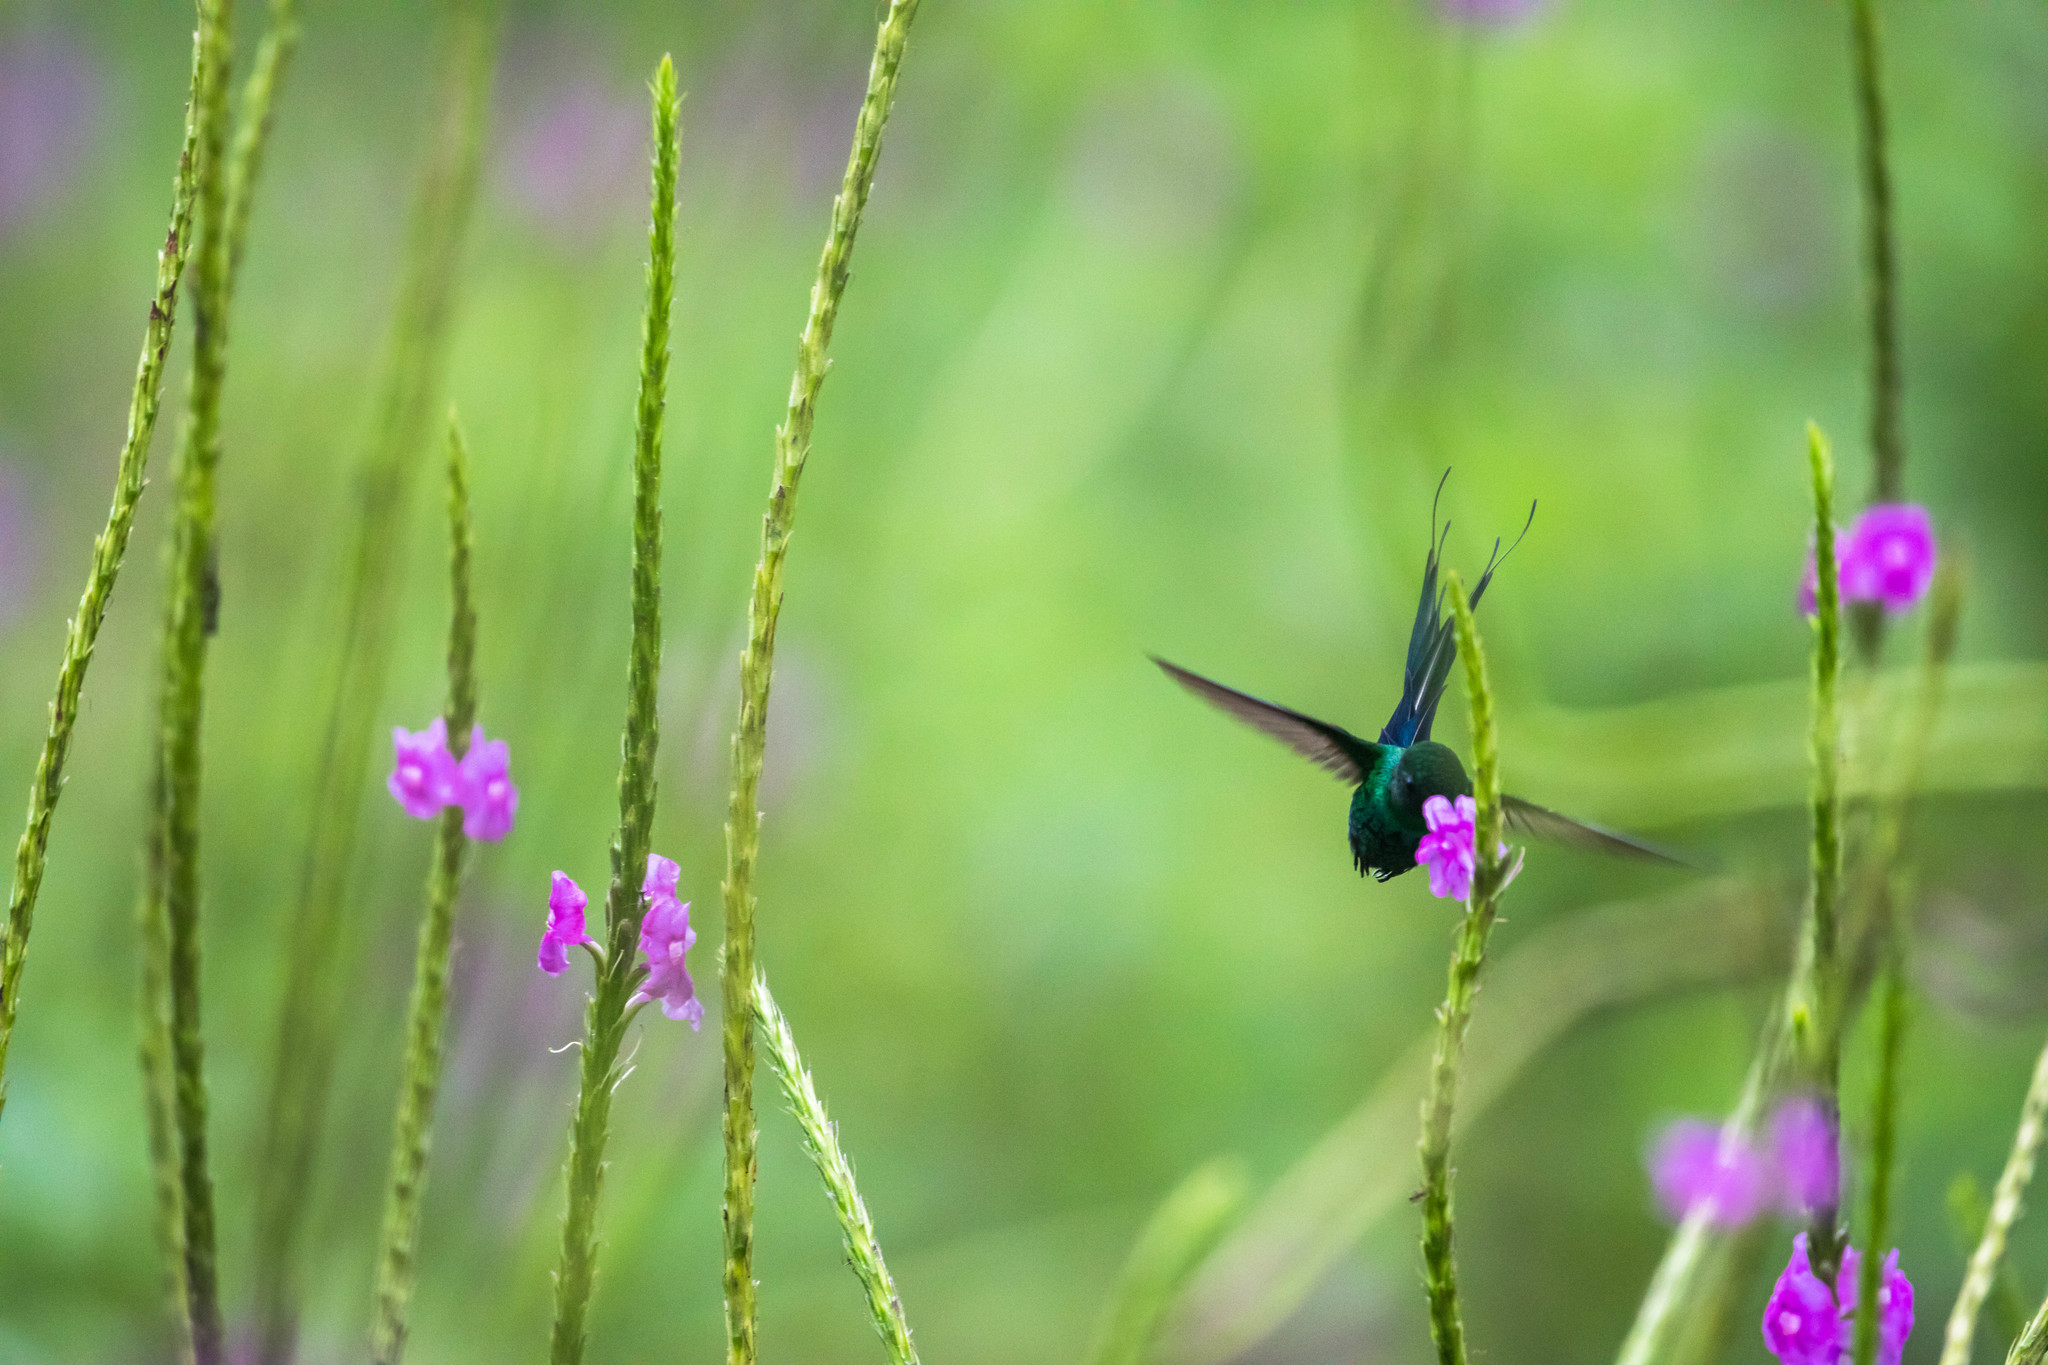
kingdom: Animalia
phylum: Chordata
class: Aves
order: Apodiformes
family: Trochilidae
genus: Discosura
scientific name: Discosura conversii
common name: Green thorntail
